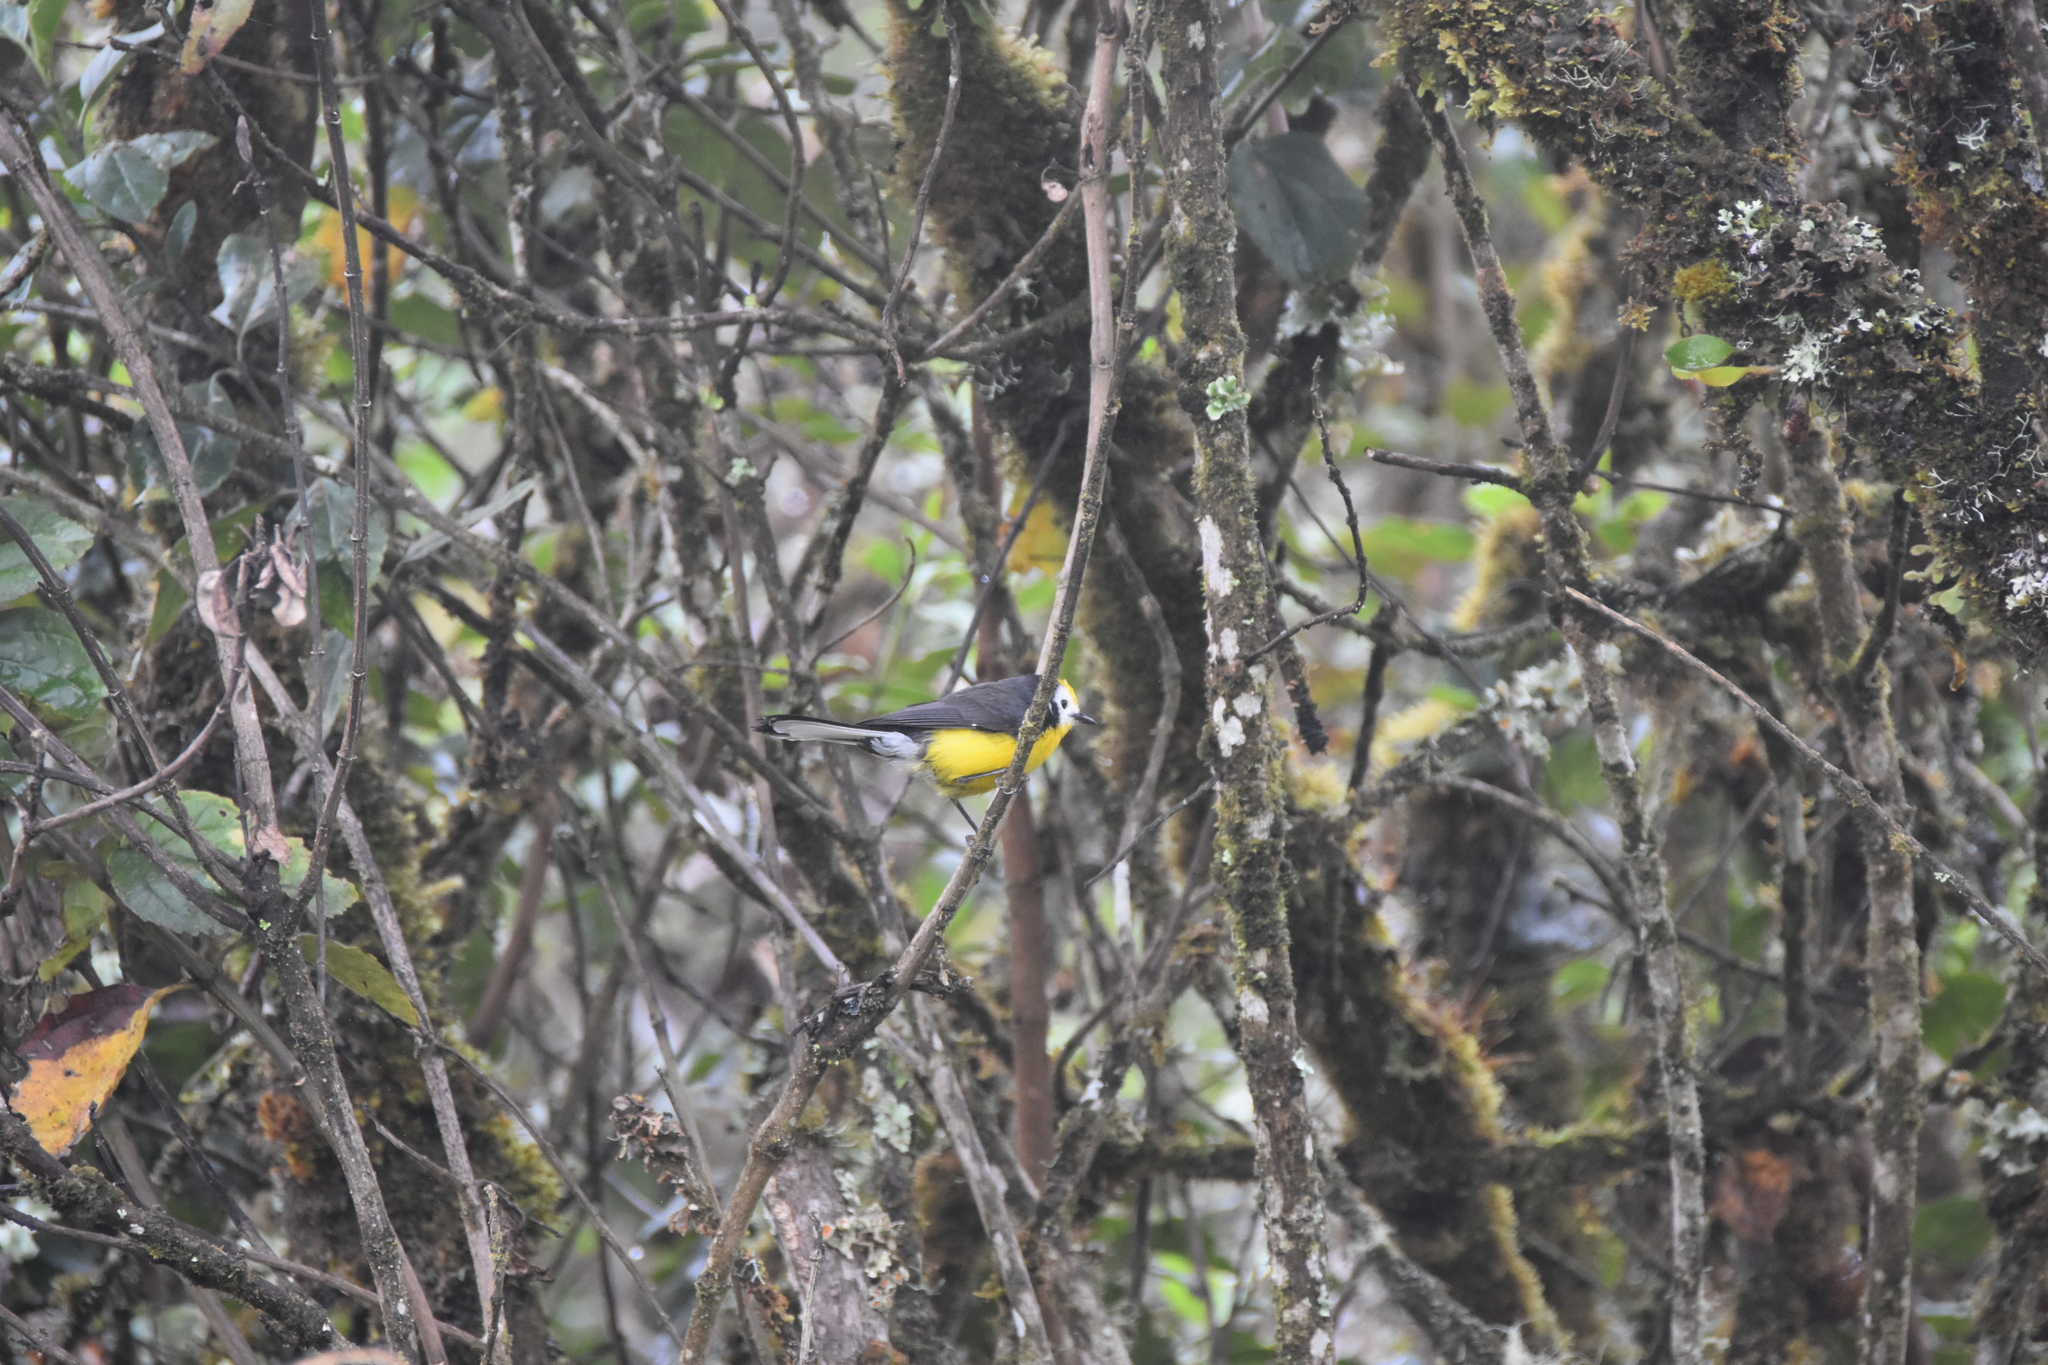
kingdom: Animalia
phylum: Chordata
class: Aves
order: Passeriformes
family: Parulidae
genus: Myioborus
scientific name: Myioborus ornatus
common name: Golden-fronted whitestart
